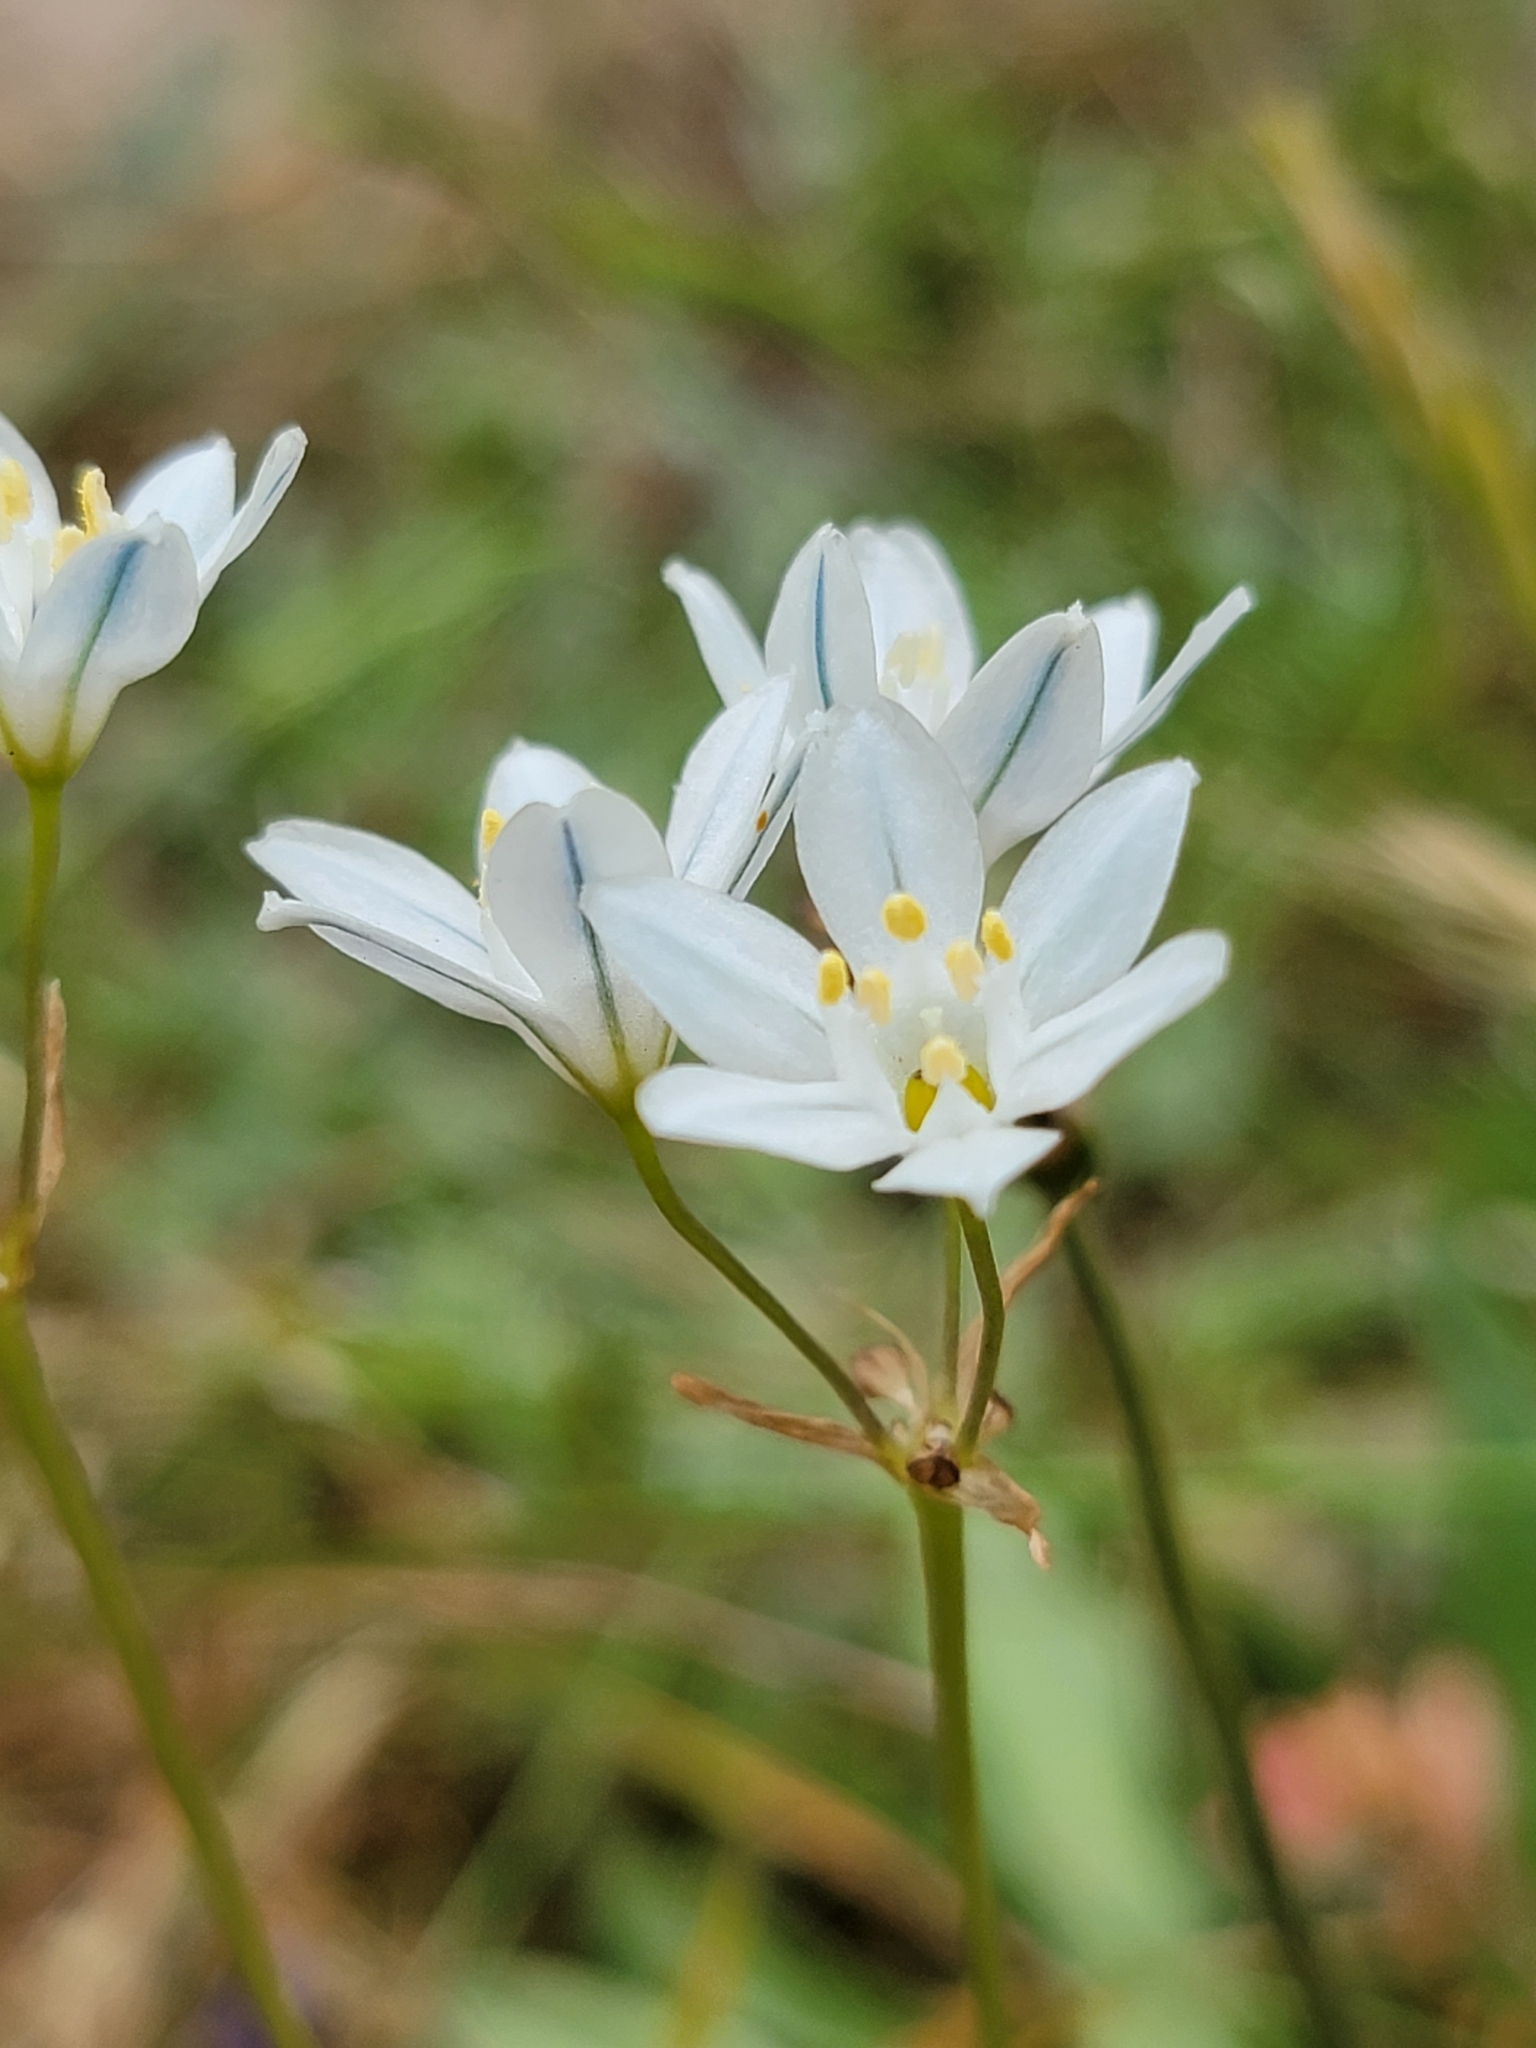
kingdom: Plantae
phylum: Tracheophyta
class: Liliopsida
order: Asparagales
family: Asparagaceae
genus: Triteleia
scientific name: Triteleia hyacinthina
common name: White brodiaea
